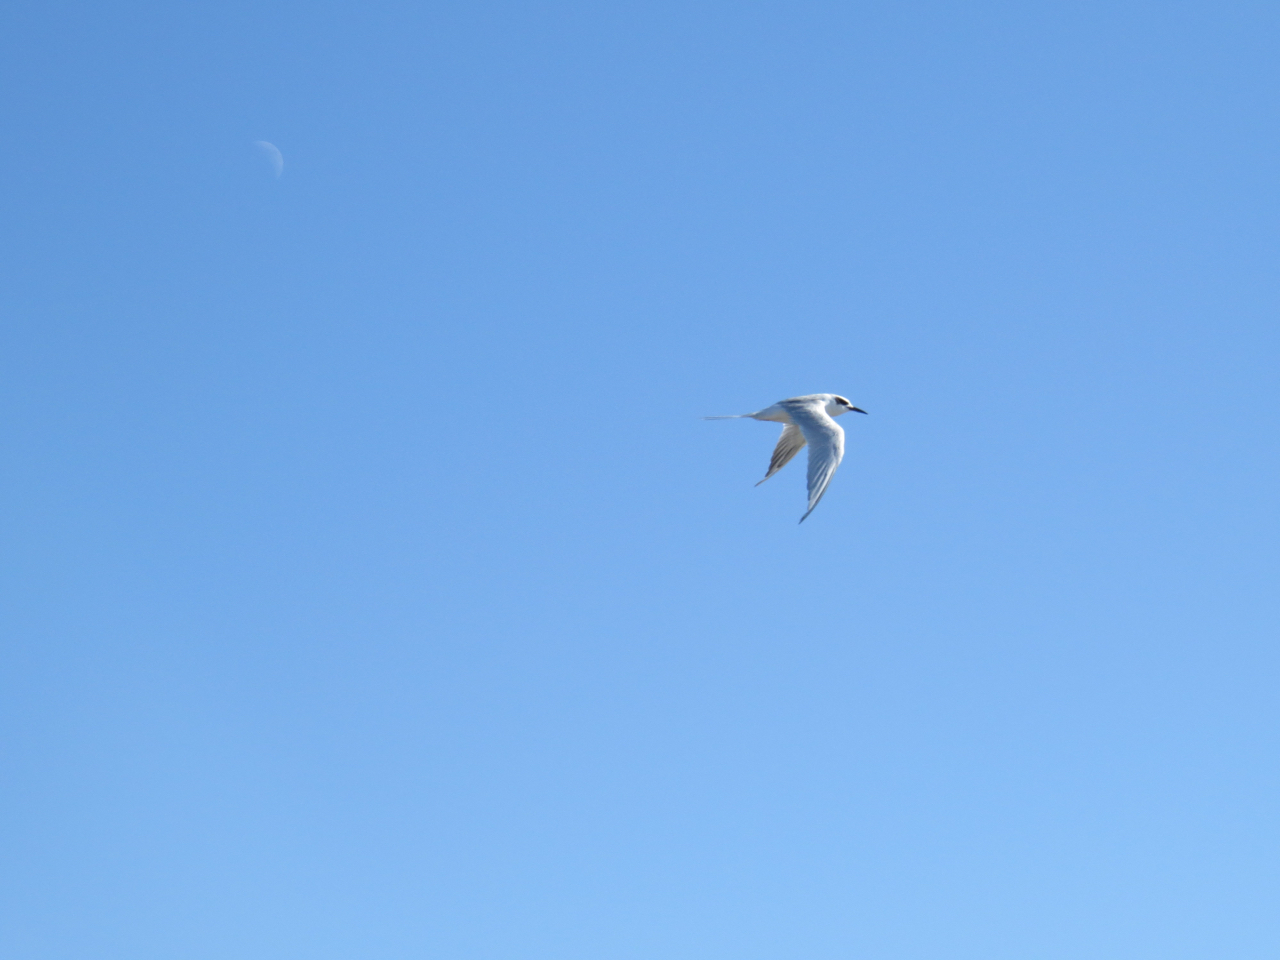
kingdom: Animalia
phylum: Chordata
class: Aves
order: Charadriiformes
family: Laridae
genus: Sterna
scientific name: Sterna forsteri
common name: Forster's tern
